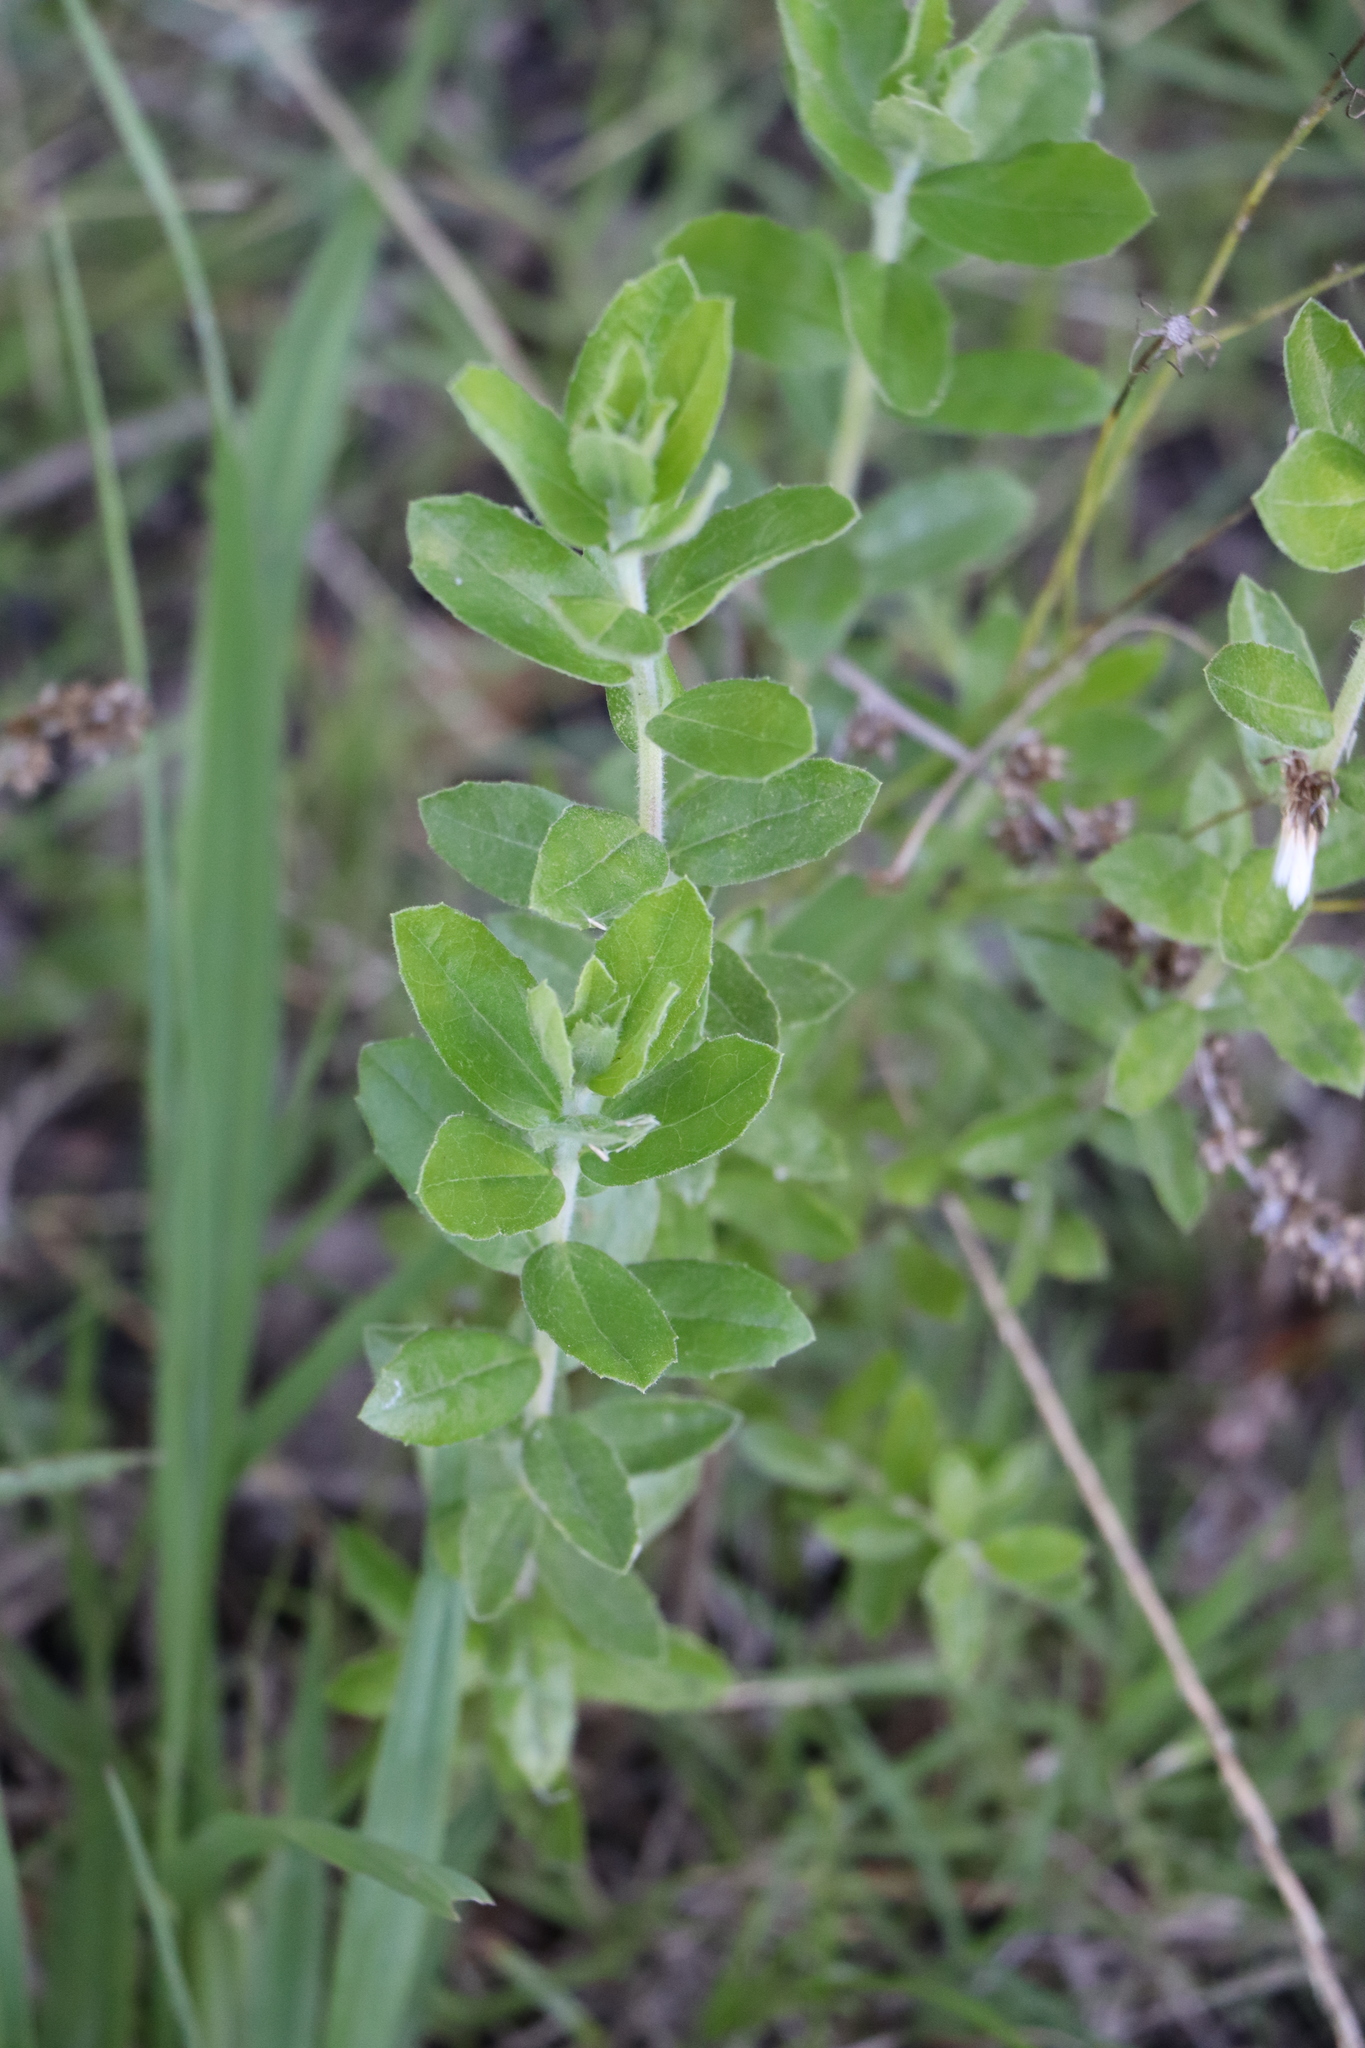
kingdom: Plantae
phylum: Tracheophyta
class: Magnoliopsida
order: Asterales
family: Asteraceae
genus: Baccharis
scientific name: Baccharis dracunculifolia
